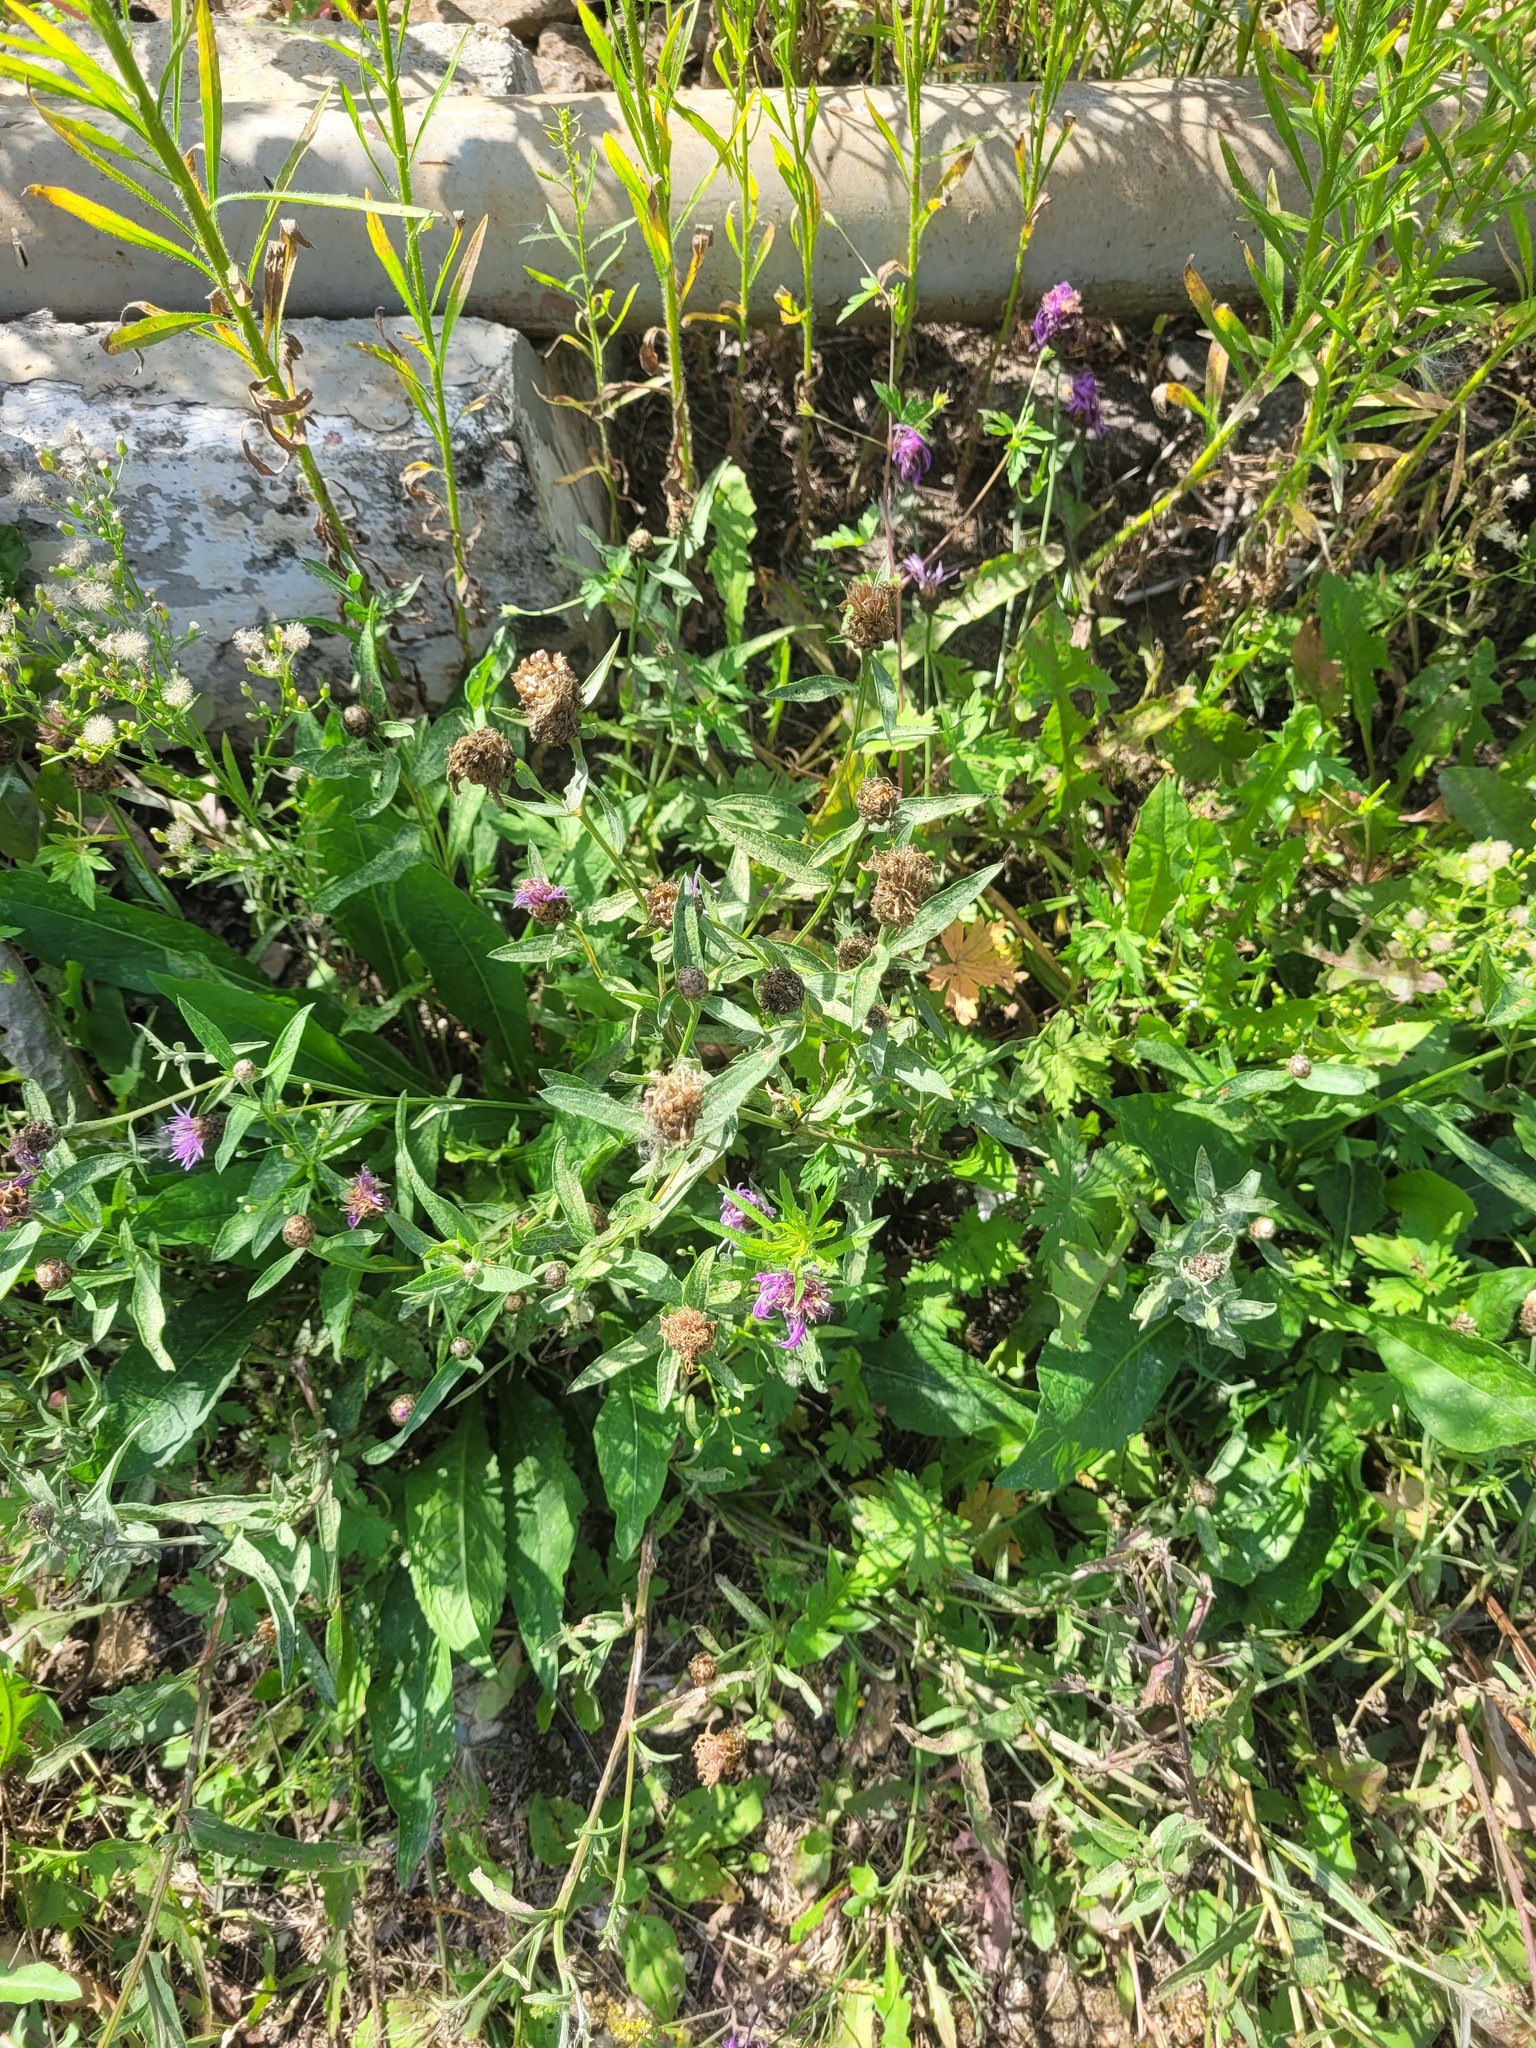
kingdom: Plantae
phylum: Tracheophyta
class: Magnoliopsida
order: Asterales
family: Asteraceae
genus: Centaurea
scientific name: Centaurea jacea
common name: Brown knapweed
